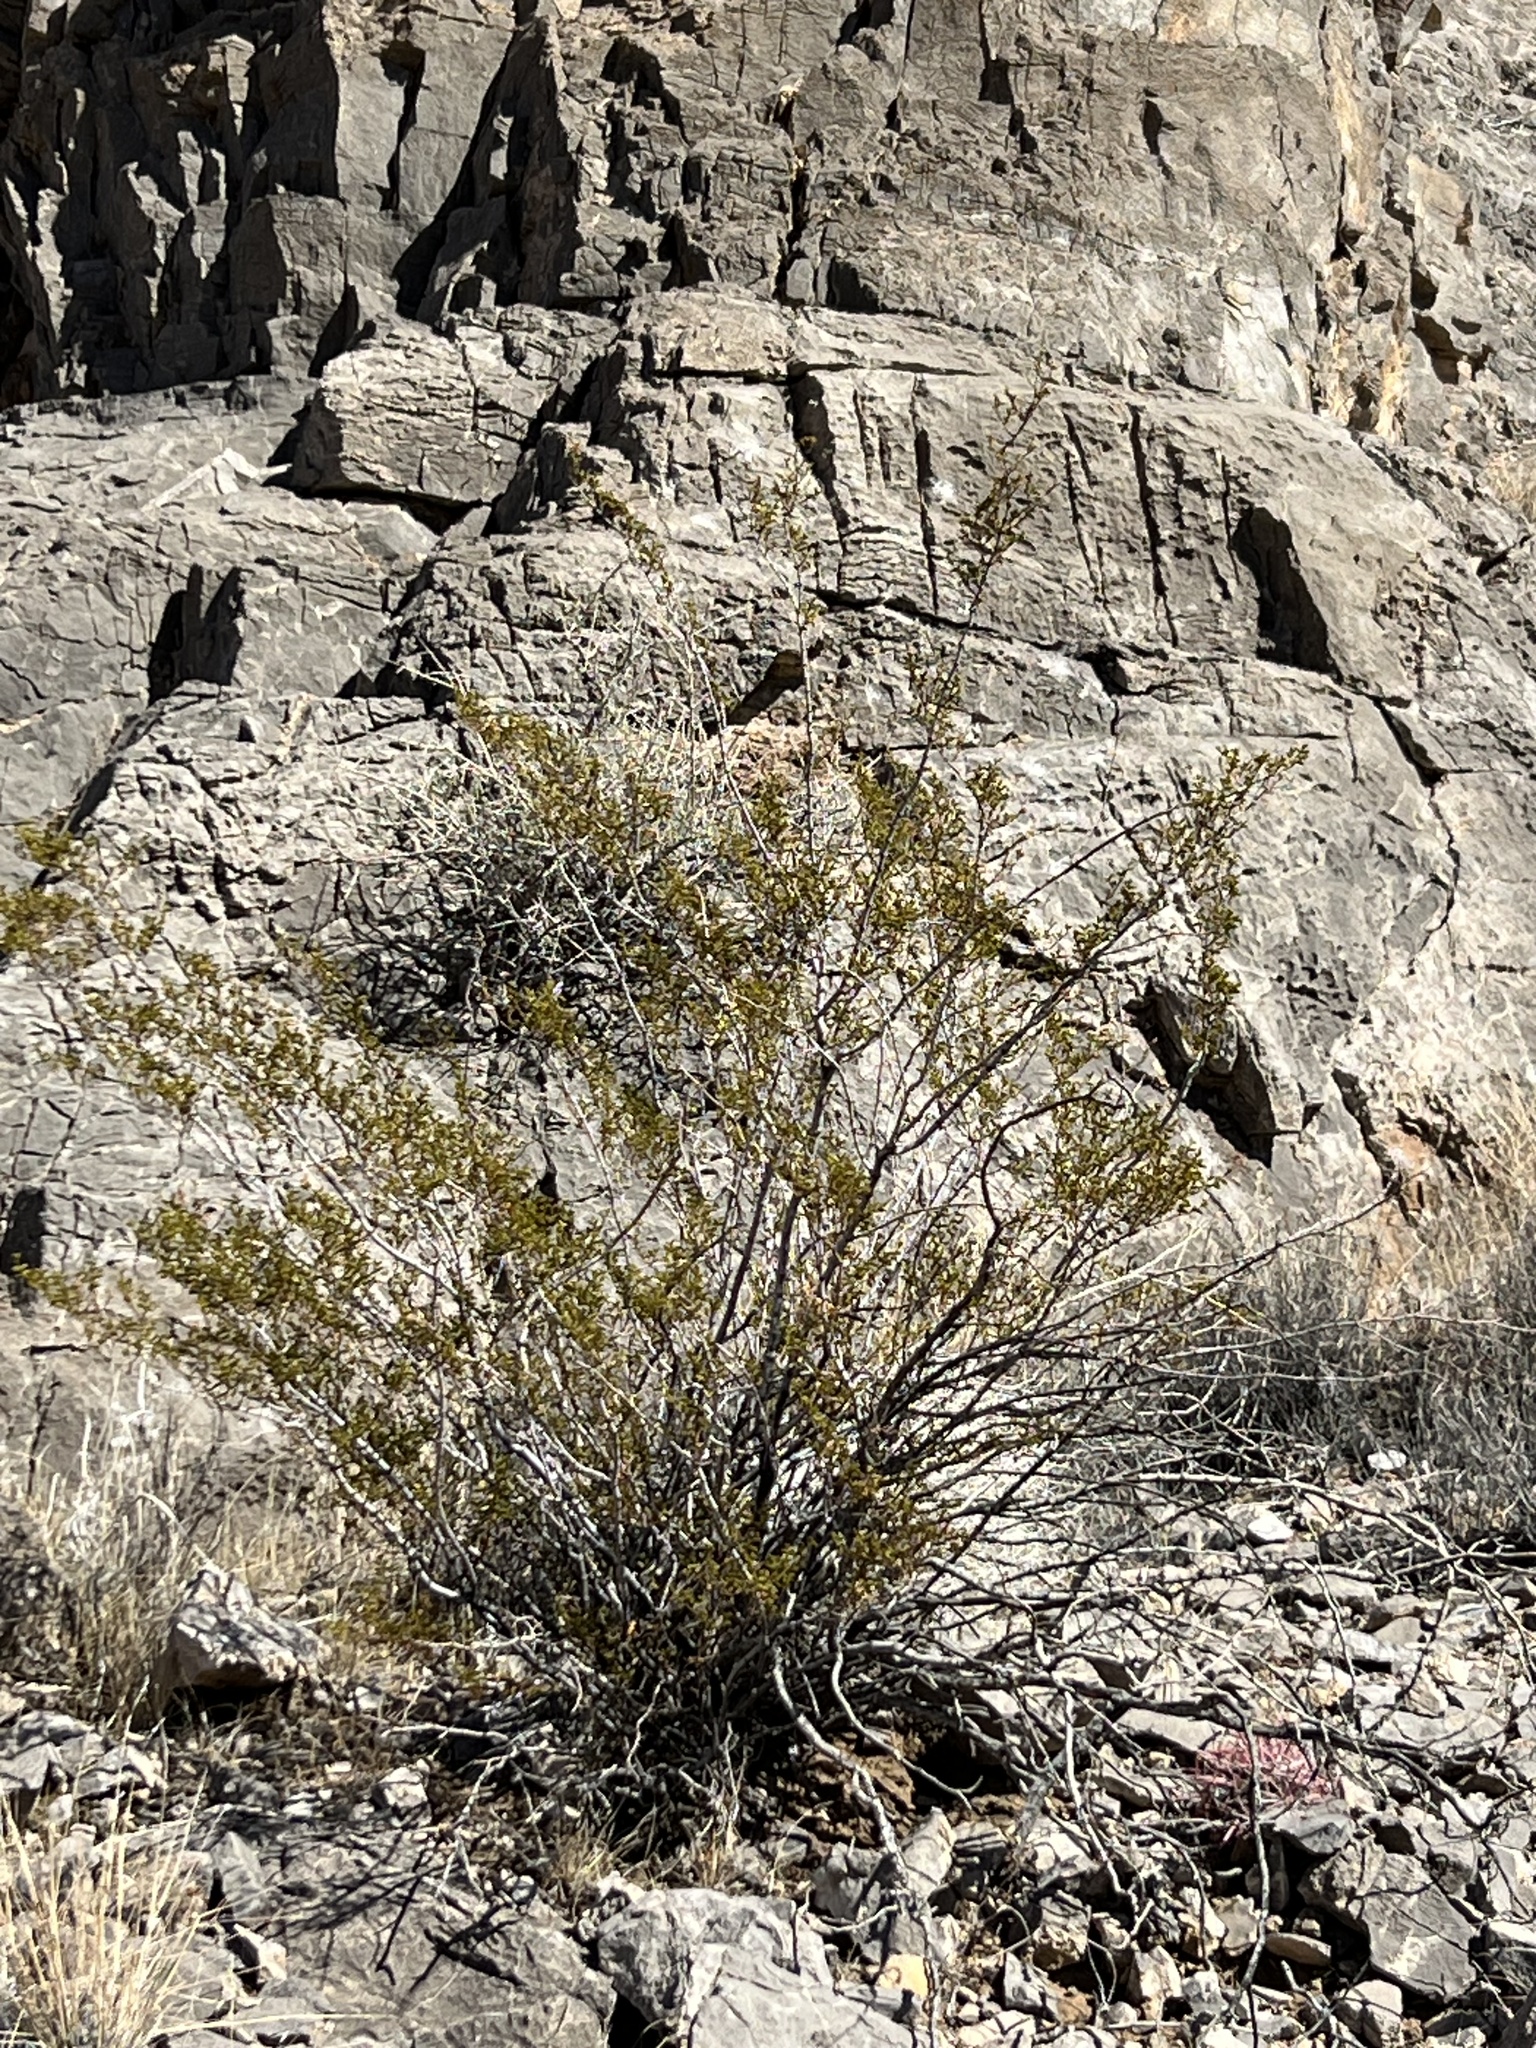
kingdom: Plantae
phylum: Tracheophyta
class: Magnoliopsida
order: Zygophyllales
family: Zygophyllaceae
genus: Larrea
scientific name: Larrea tridentata
